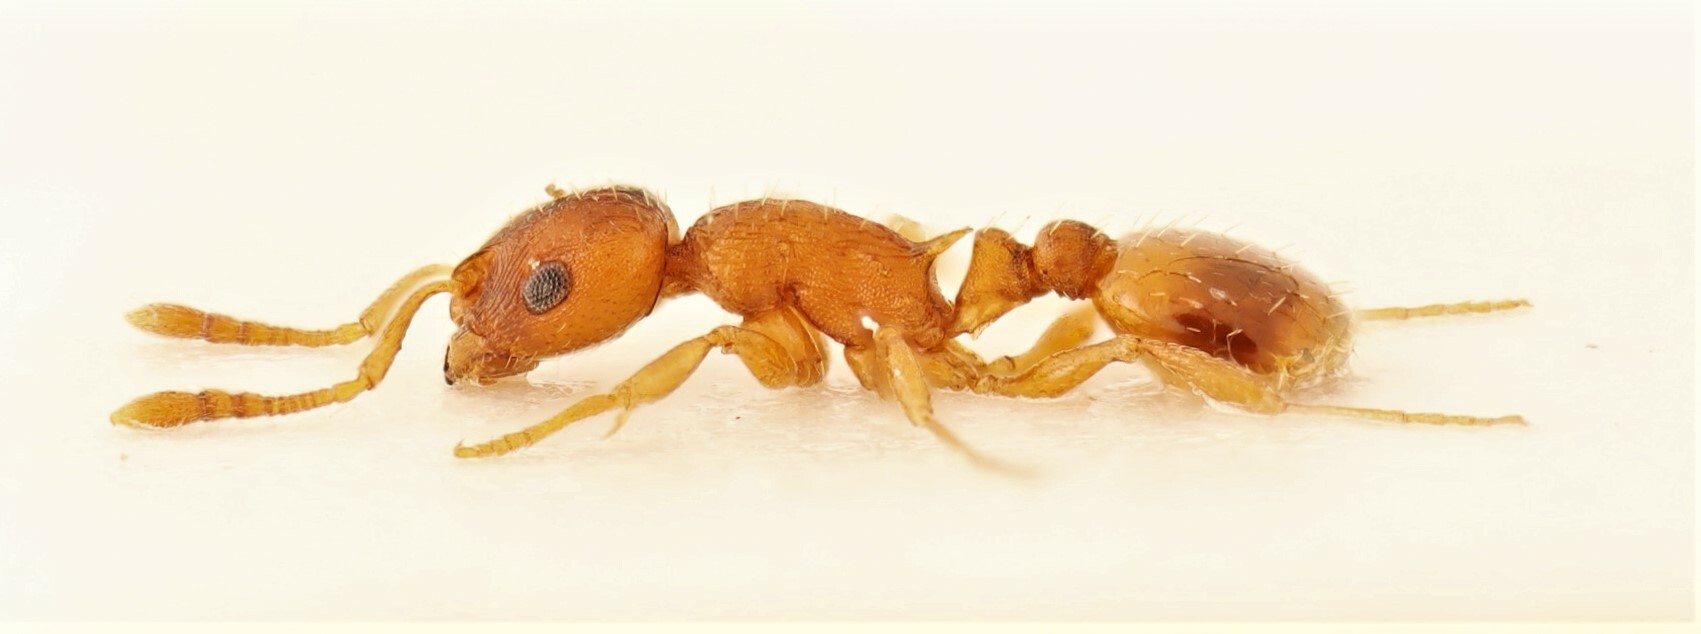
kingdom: Animalia
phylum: Arthropoda
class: Insecta
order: Hymenoptera
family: Formicidae
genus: Temnothorax
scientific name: Temnothorax ambiguus
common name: Doubtful acorn ant
